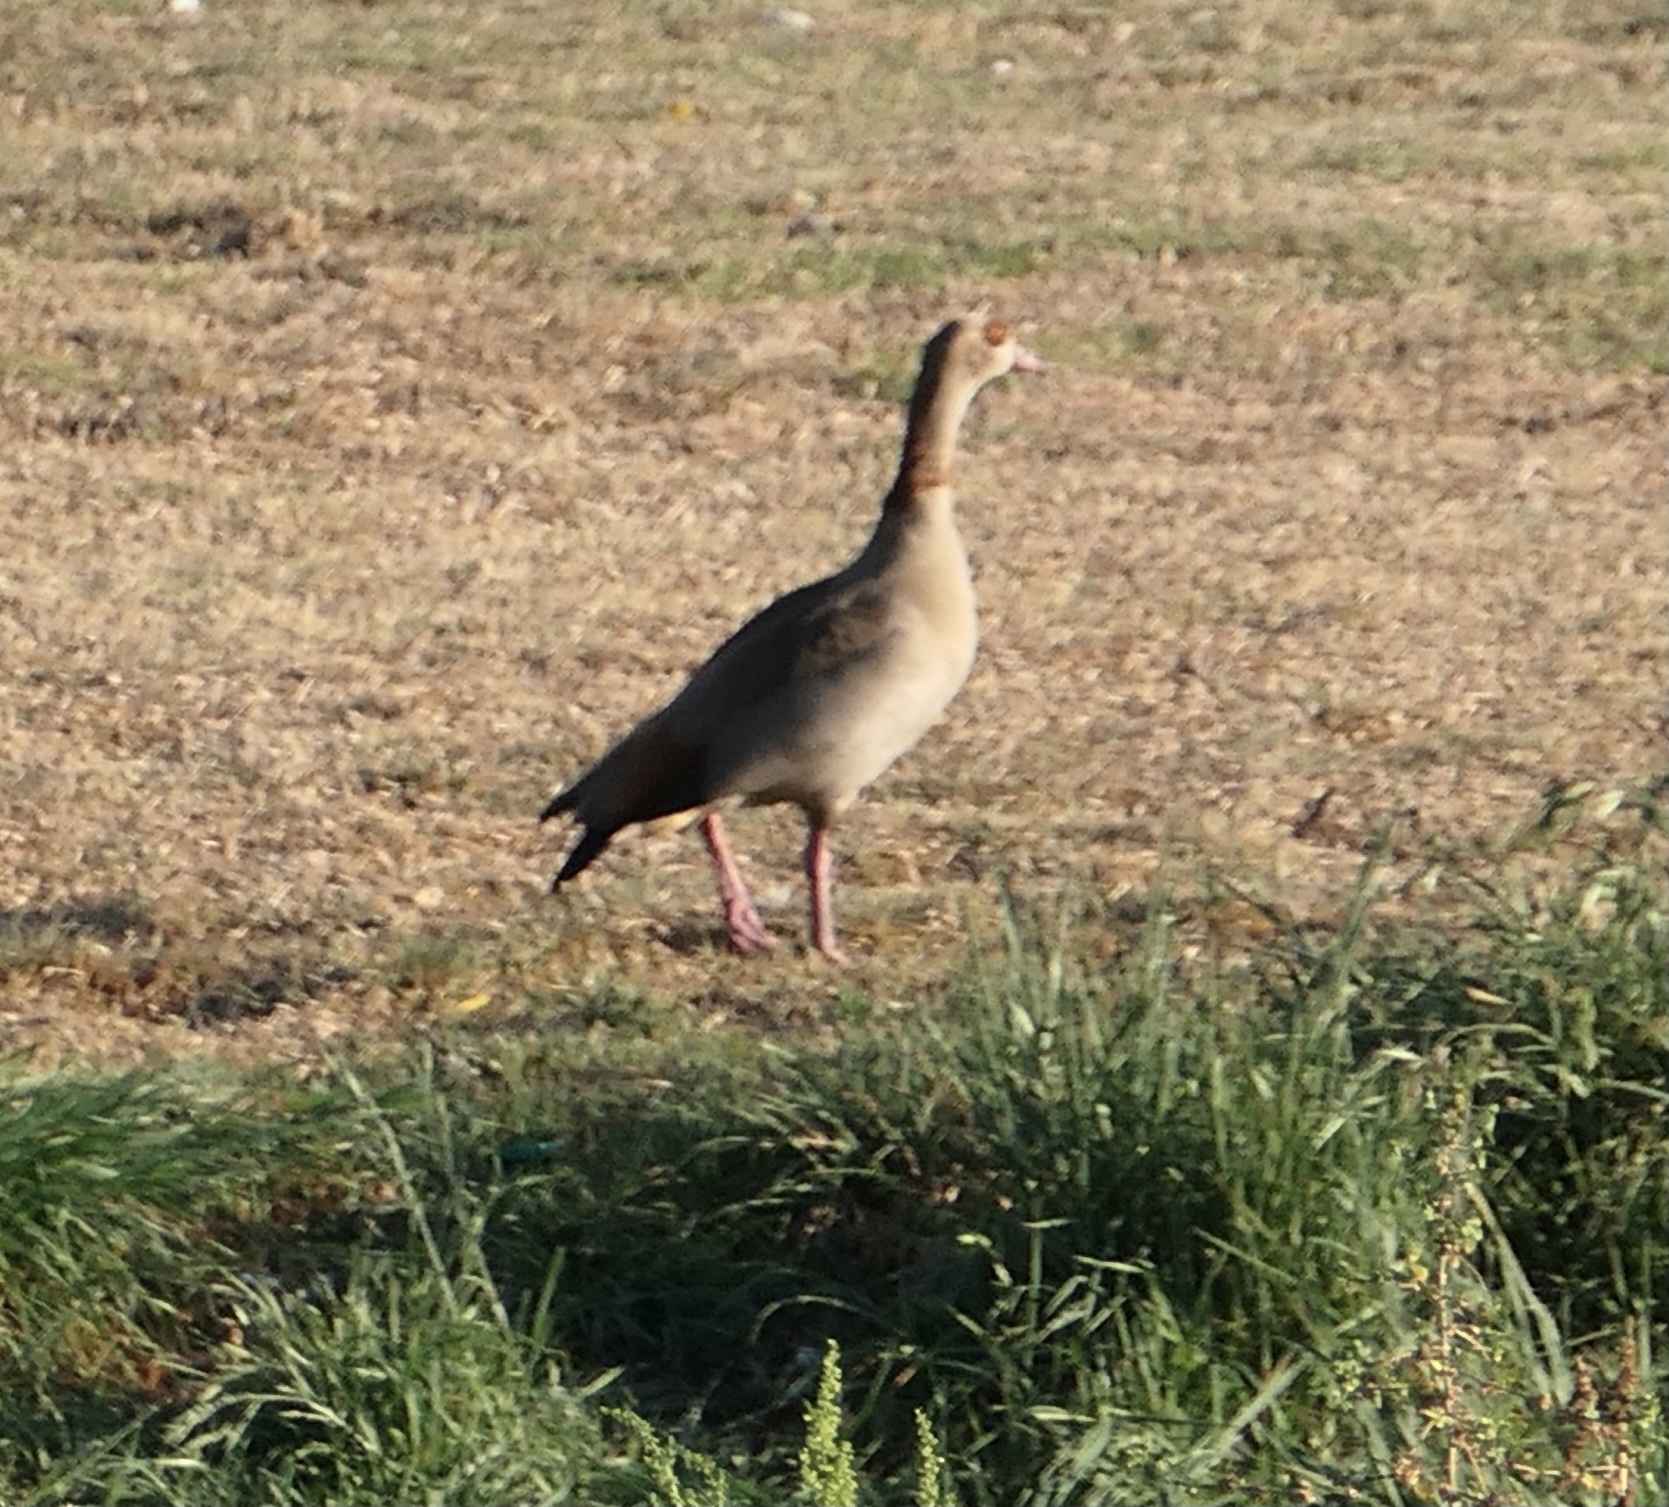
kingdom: Animalia
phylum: Chordata
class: Aves
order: Anseriformes
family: Anatidae
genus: Alopochen
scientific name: Alopochen aegyptiaca
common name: Egyptian goose
